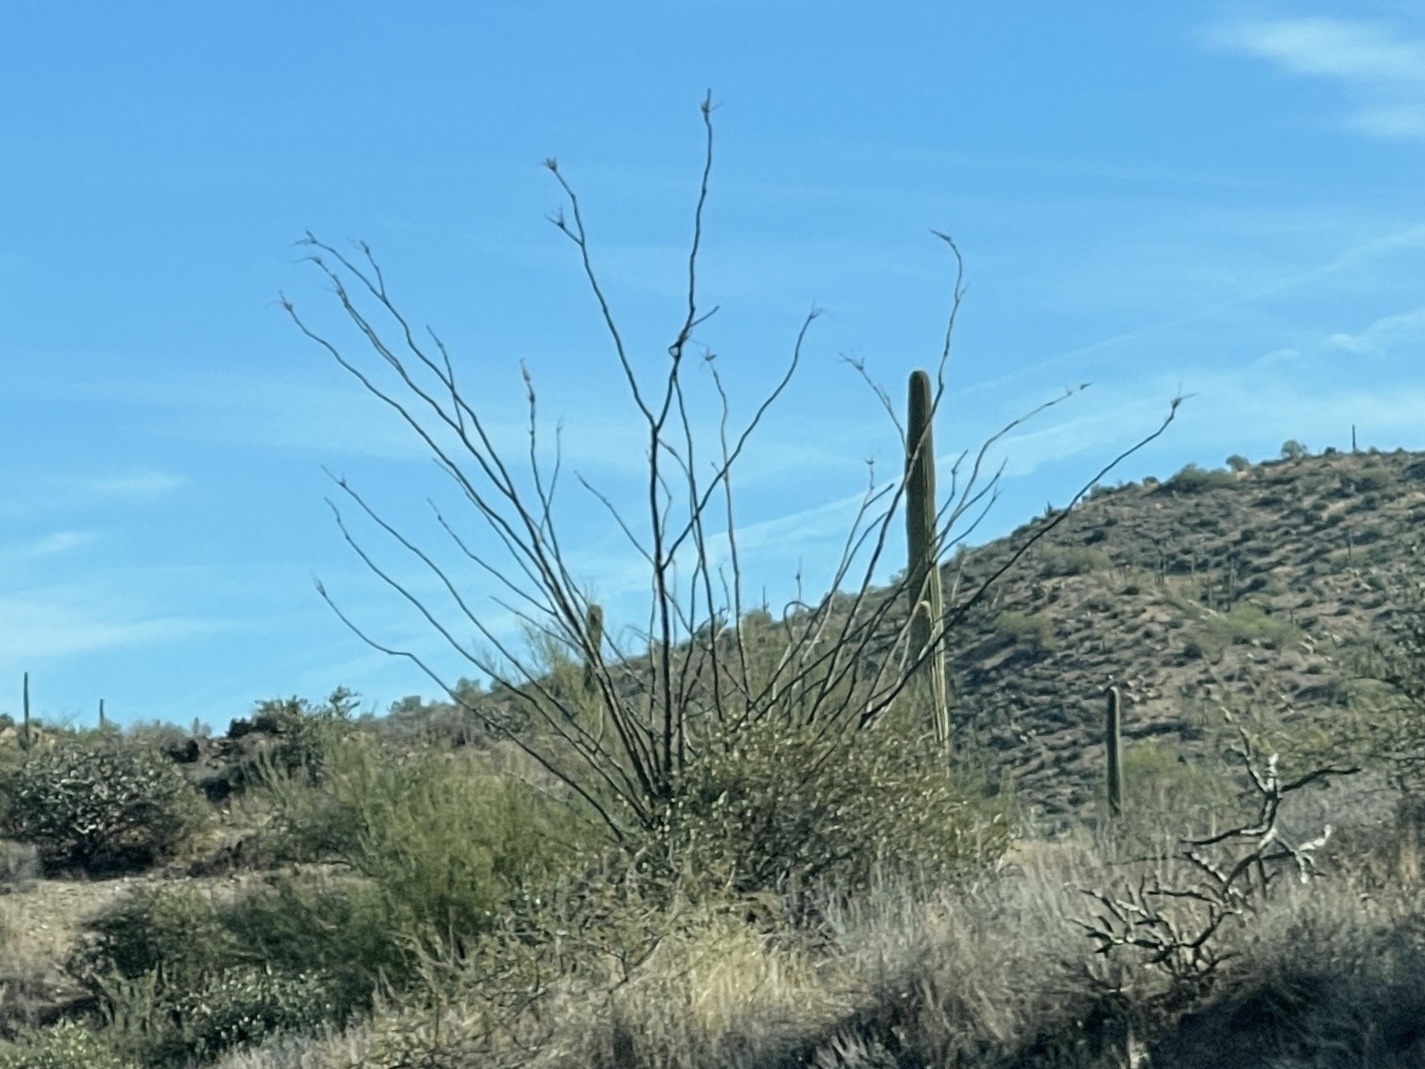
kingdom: Plantae
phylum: Tracheophyta
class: Magnoliopsida
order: Ericales
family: Fouquieriaceae
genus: Fouquieria
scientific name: Fouquieria splendens
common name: Vine-cactus
